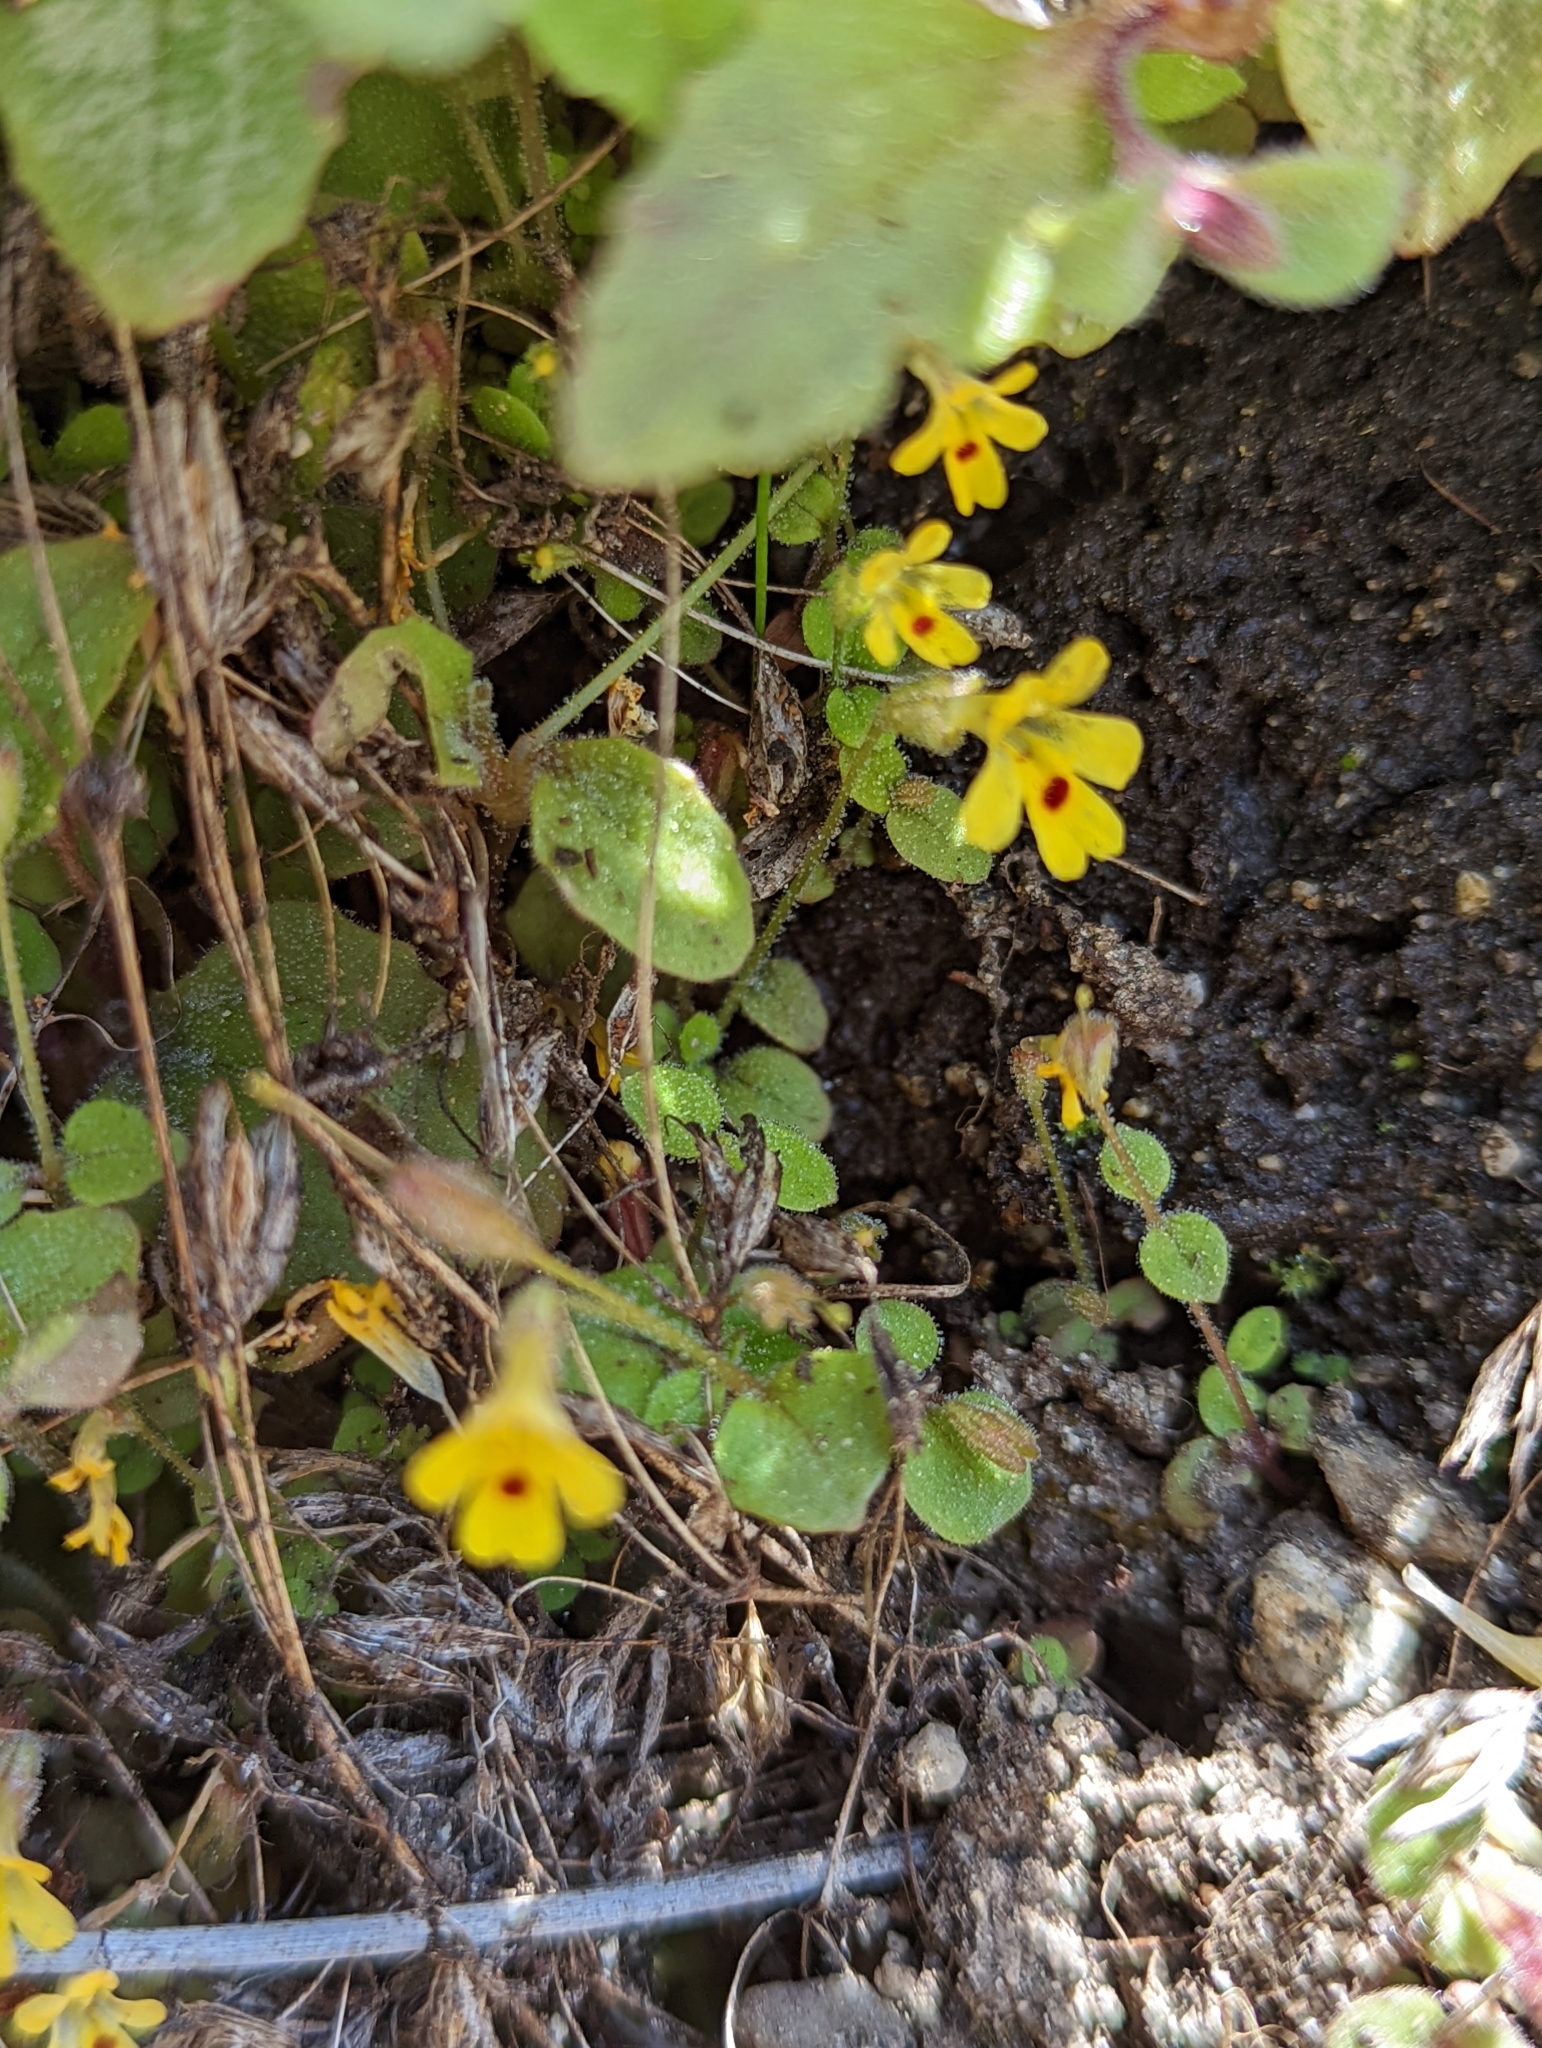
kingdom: Plantae
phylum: Tracheophyta
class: Magnoliopsida
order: Lamiales
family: Phrymaceae
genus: Erythranthe
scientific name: Erythranthe alsinoides
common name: Chickweed monkeyflower
